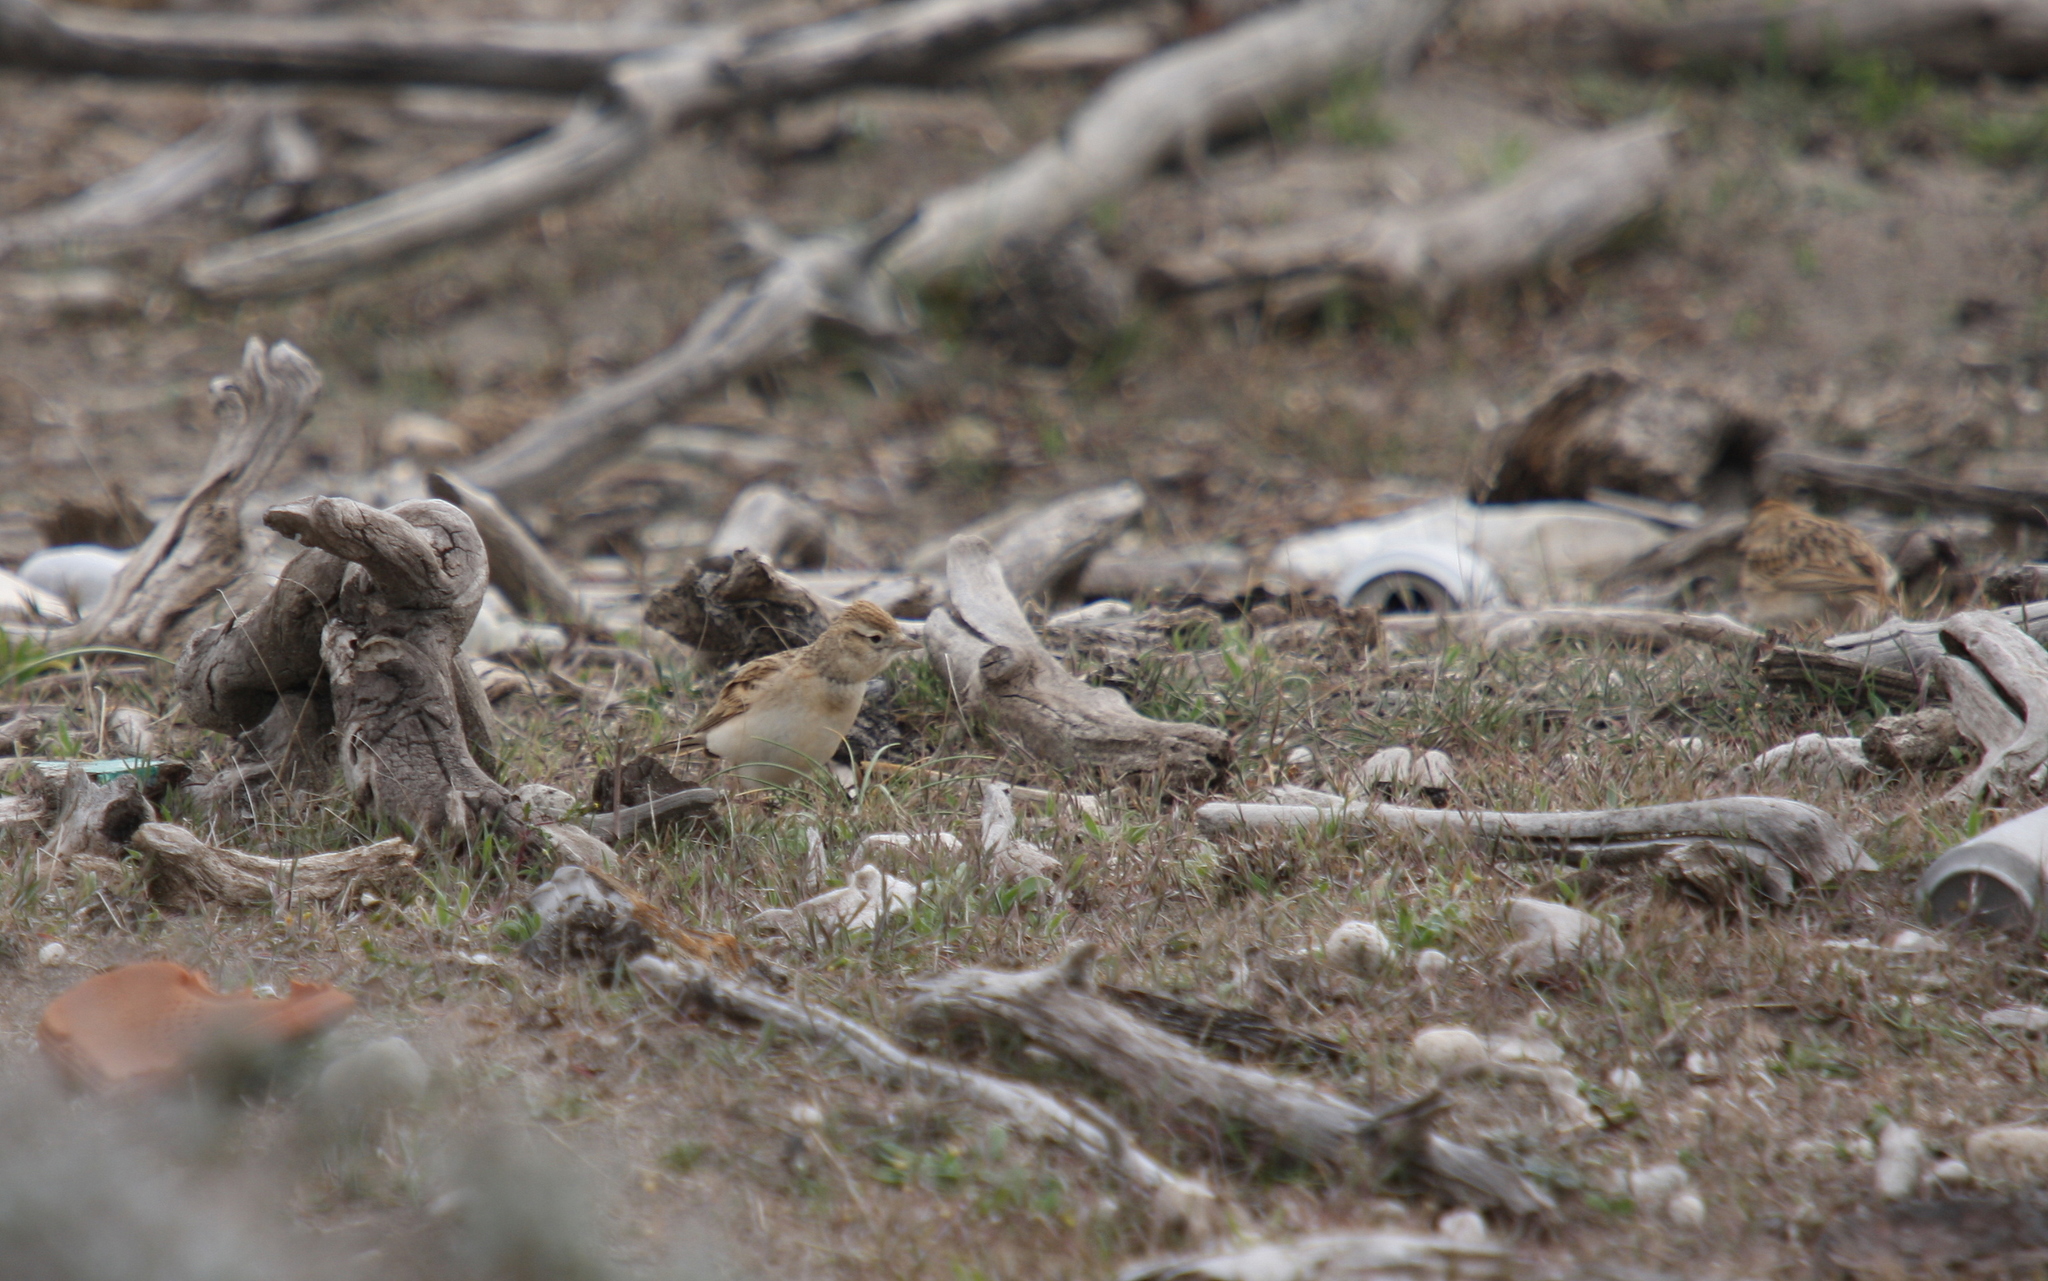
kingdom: Animalia
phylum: Chordata
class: Aves
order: Passeriformes
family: Alaudidae
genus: Calandrella
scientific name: Calandrella brachydactyla
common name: Greater short-toed lark
